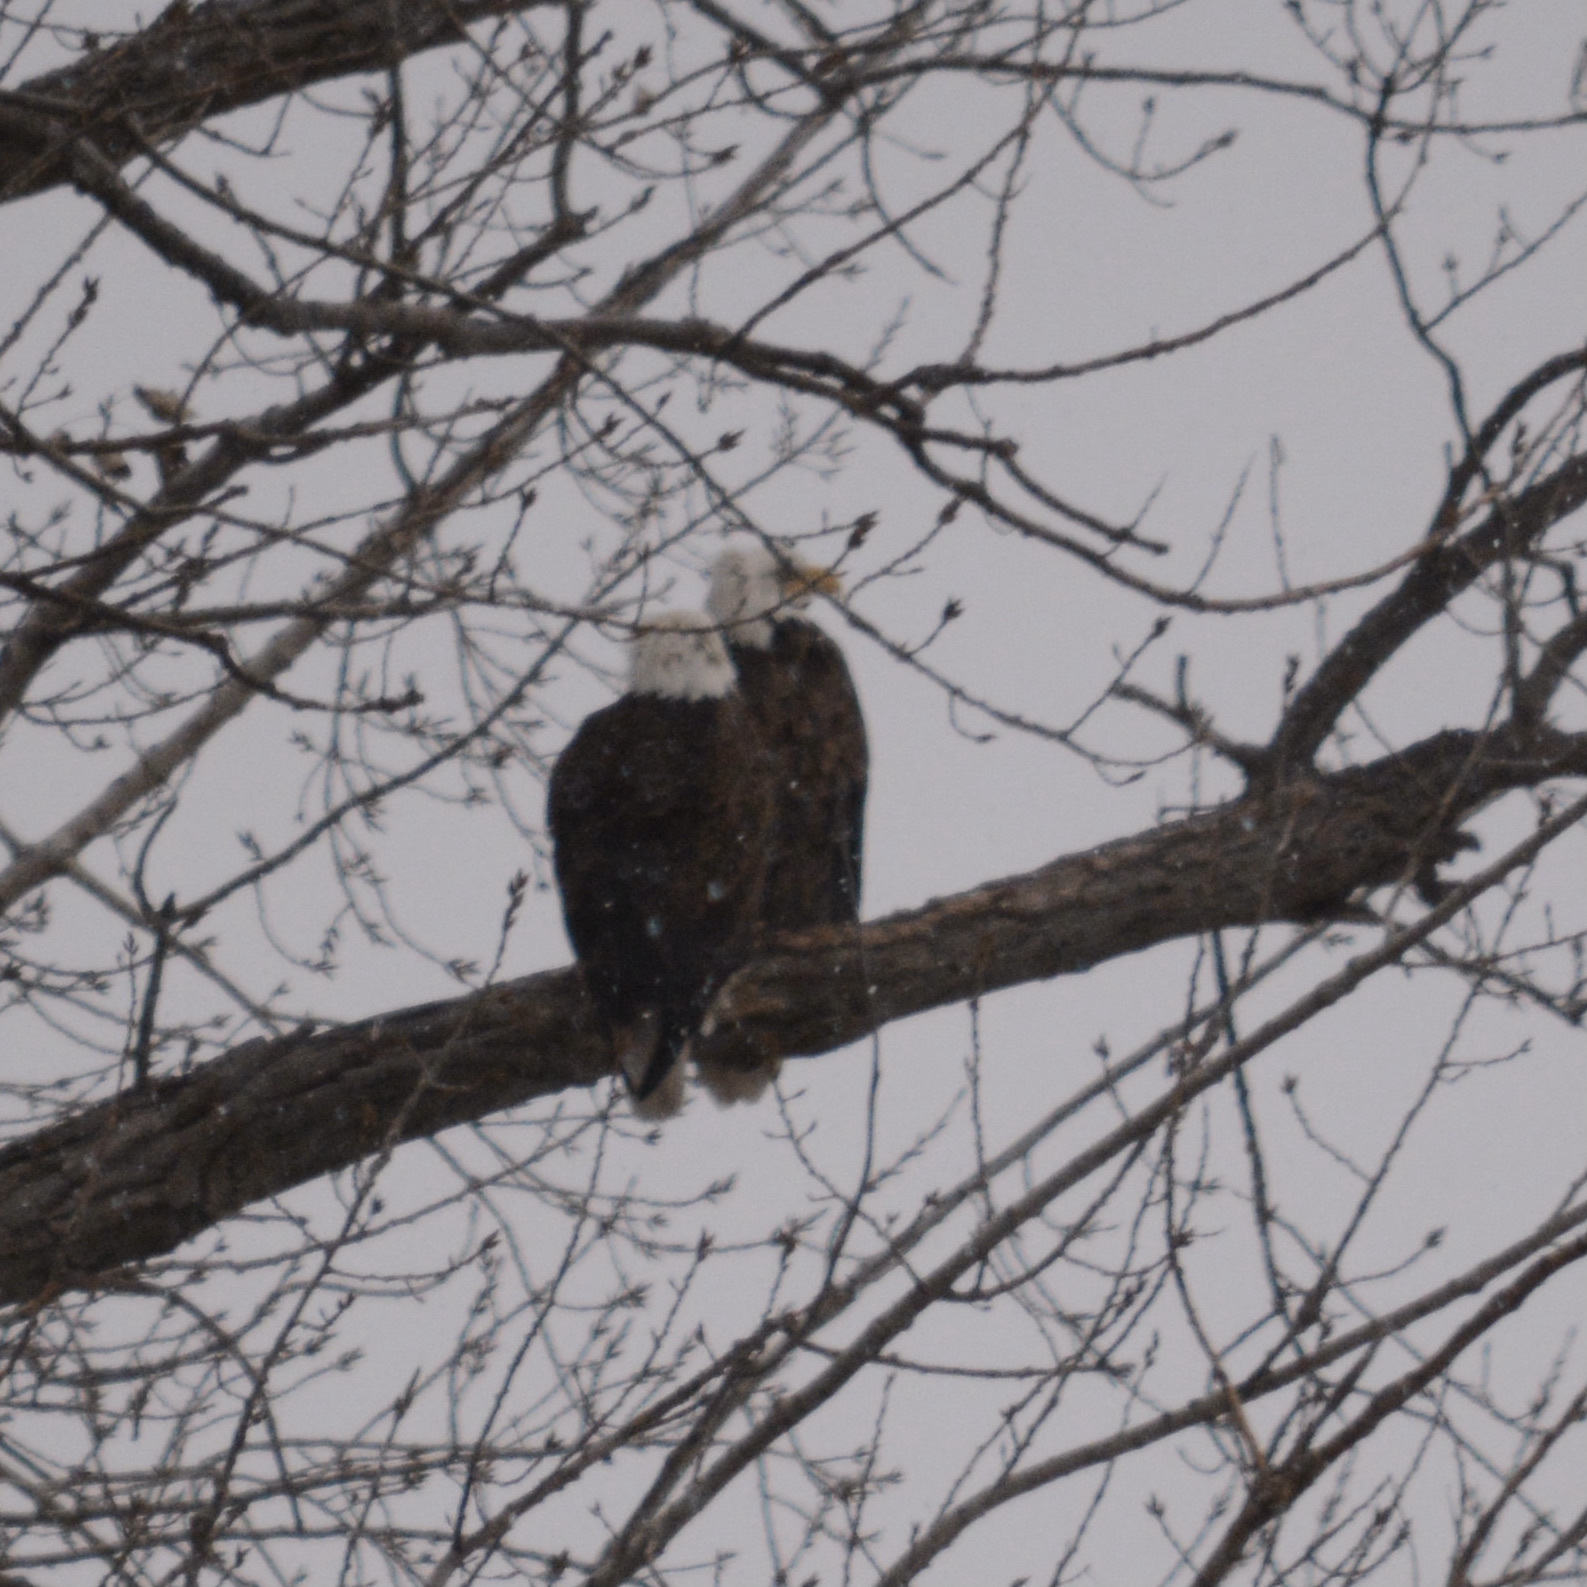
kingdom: Animalia
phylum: Chordata
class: Aves
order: Accipitriformes
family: Accipitridae
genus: Haliaeetus
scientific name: Haliaeetus leucocephalus
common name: Bald eagle
